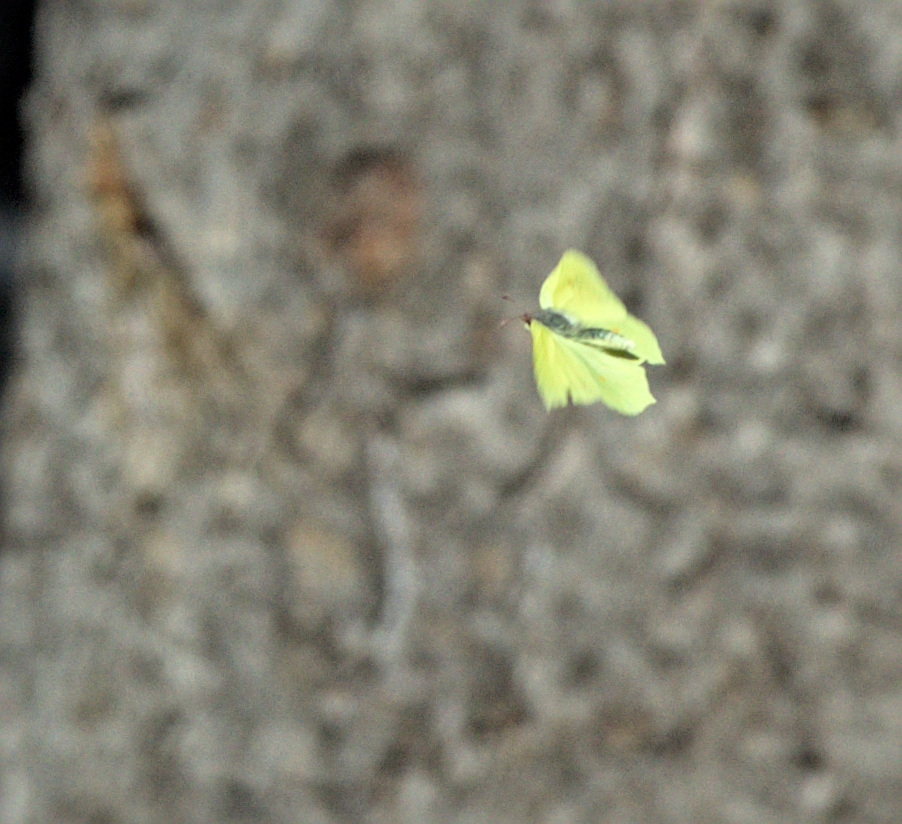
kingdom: Animalia
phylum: Arthropoda
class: Insecta
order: Lepidoptera
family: Pieridae
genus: Gonepteryx
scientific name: Gonepteryx rhamni
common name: Brimstone
